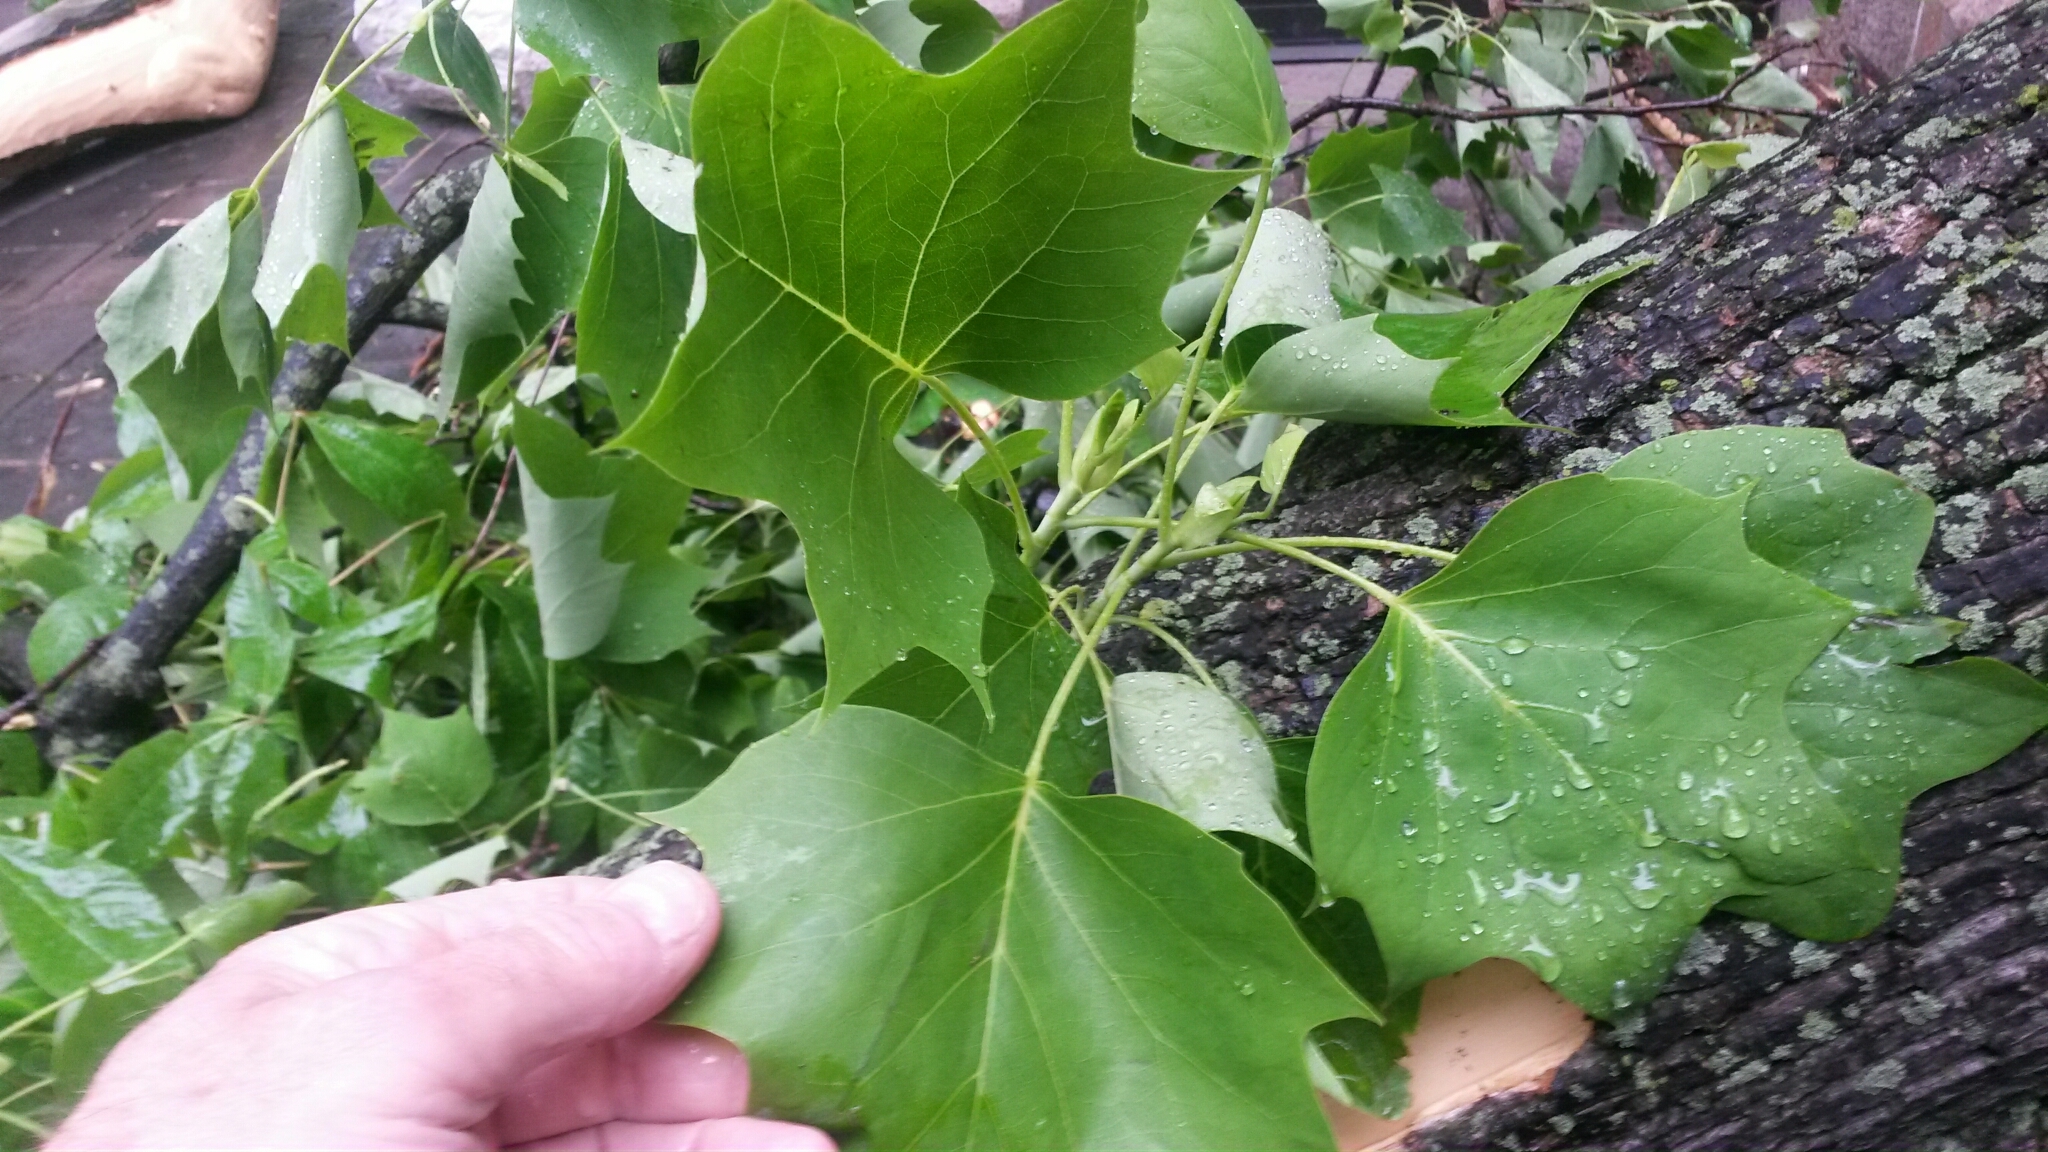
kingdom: Plantae
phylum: Tracheophyta
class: Magnoliopsida
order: Magnoliales
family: Magnoliaceae
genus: Liriodendron
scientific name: Liriodendron tulipifera
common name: Tulip tree
